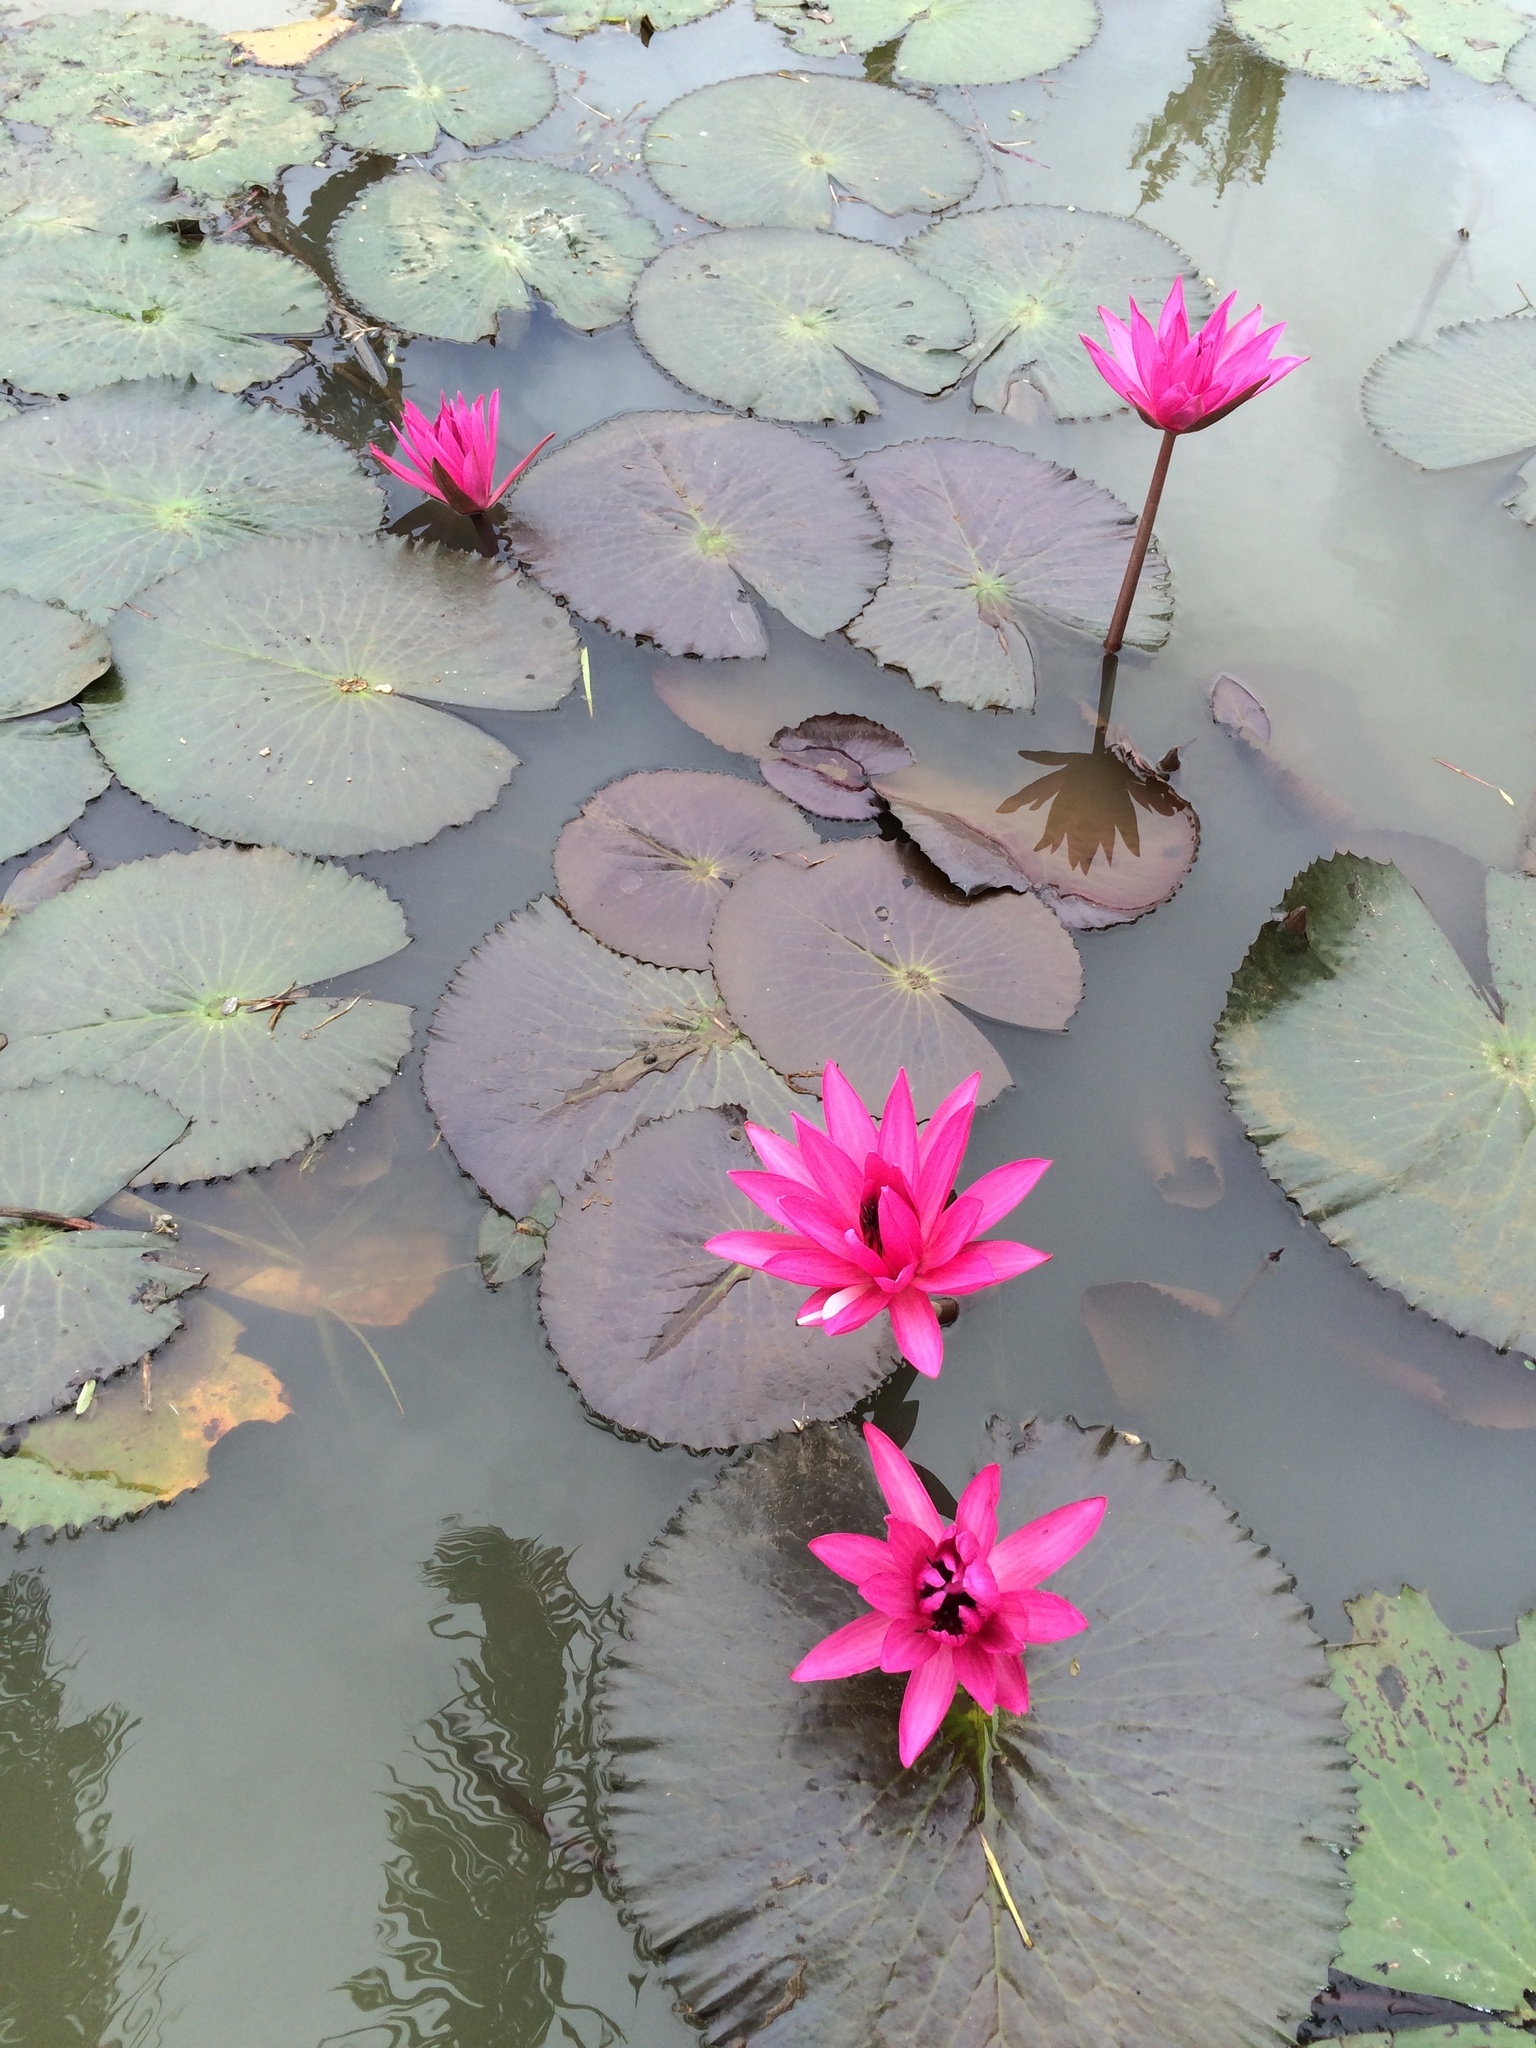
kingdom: Plantae
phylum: Tracheophyta
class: Magnoliopsida
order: Nymphaeales
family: Nymphaeaceae
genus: Nymphaea
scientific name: Nymphaea rubra
